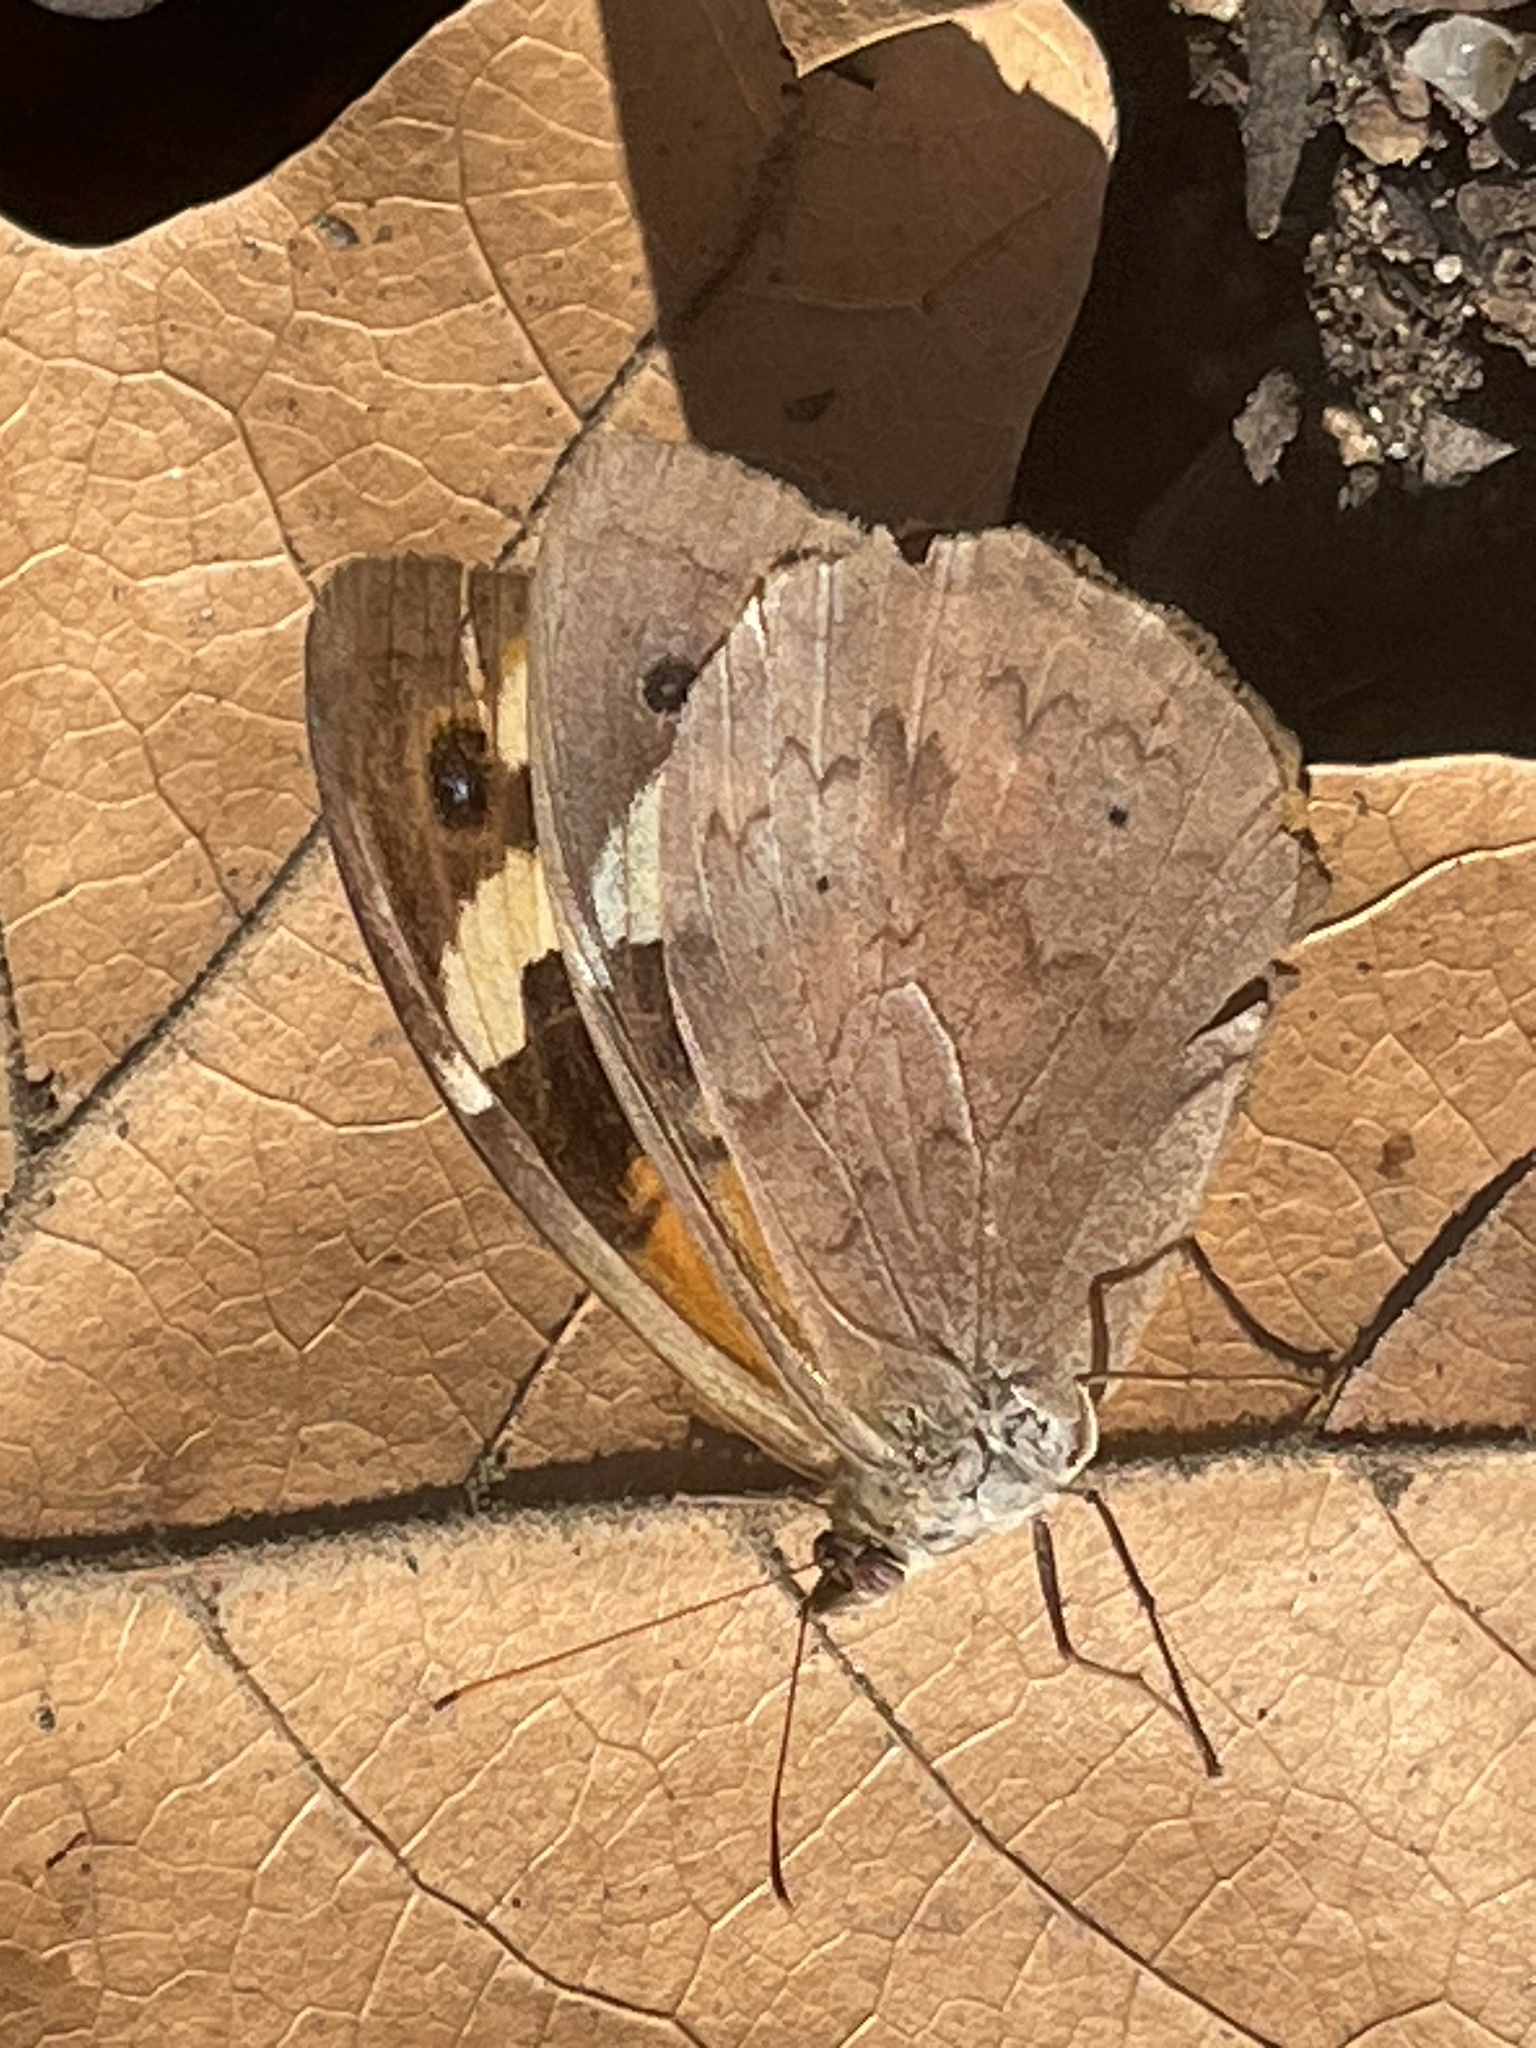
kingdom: Animalia
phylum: Arthropoda
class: Insecta
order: Lepidoptera
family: Nymphalidae
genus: Heteronympha
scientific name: Heteronympha merope
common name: Common brown
